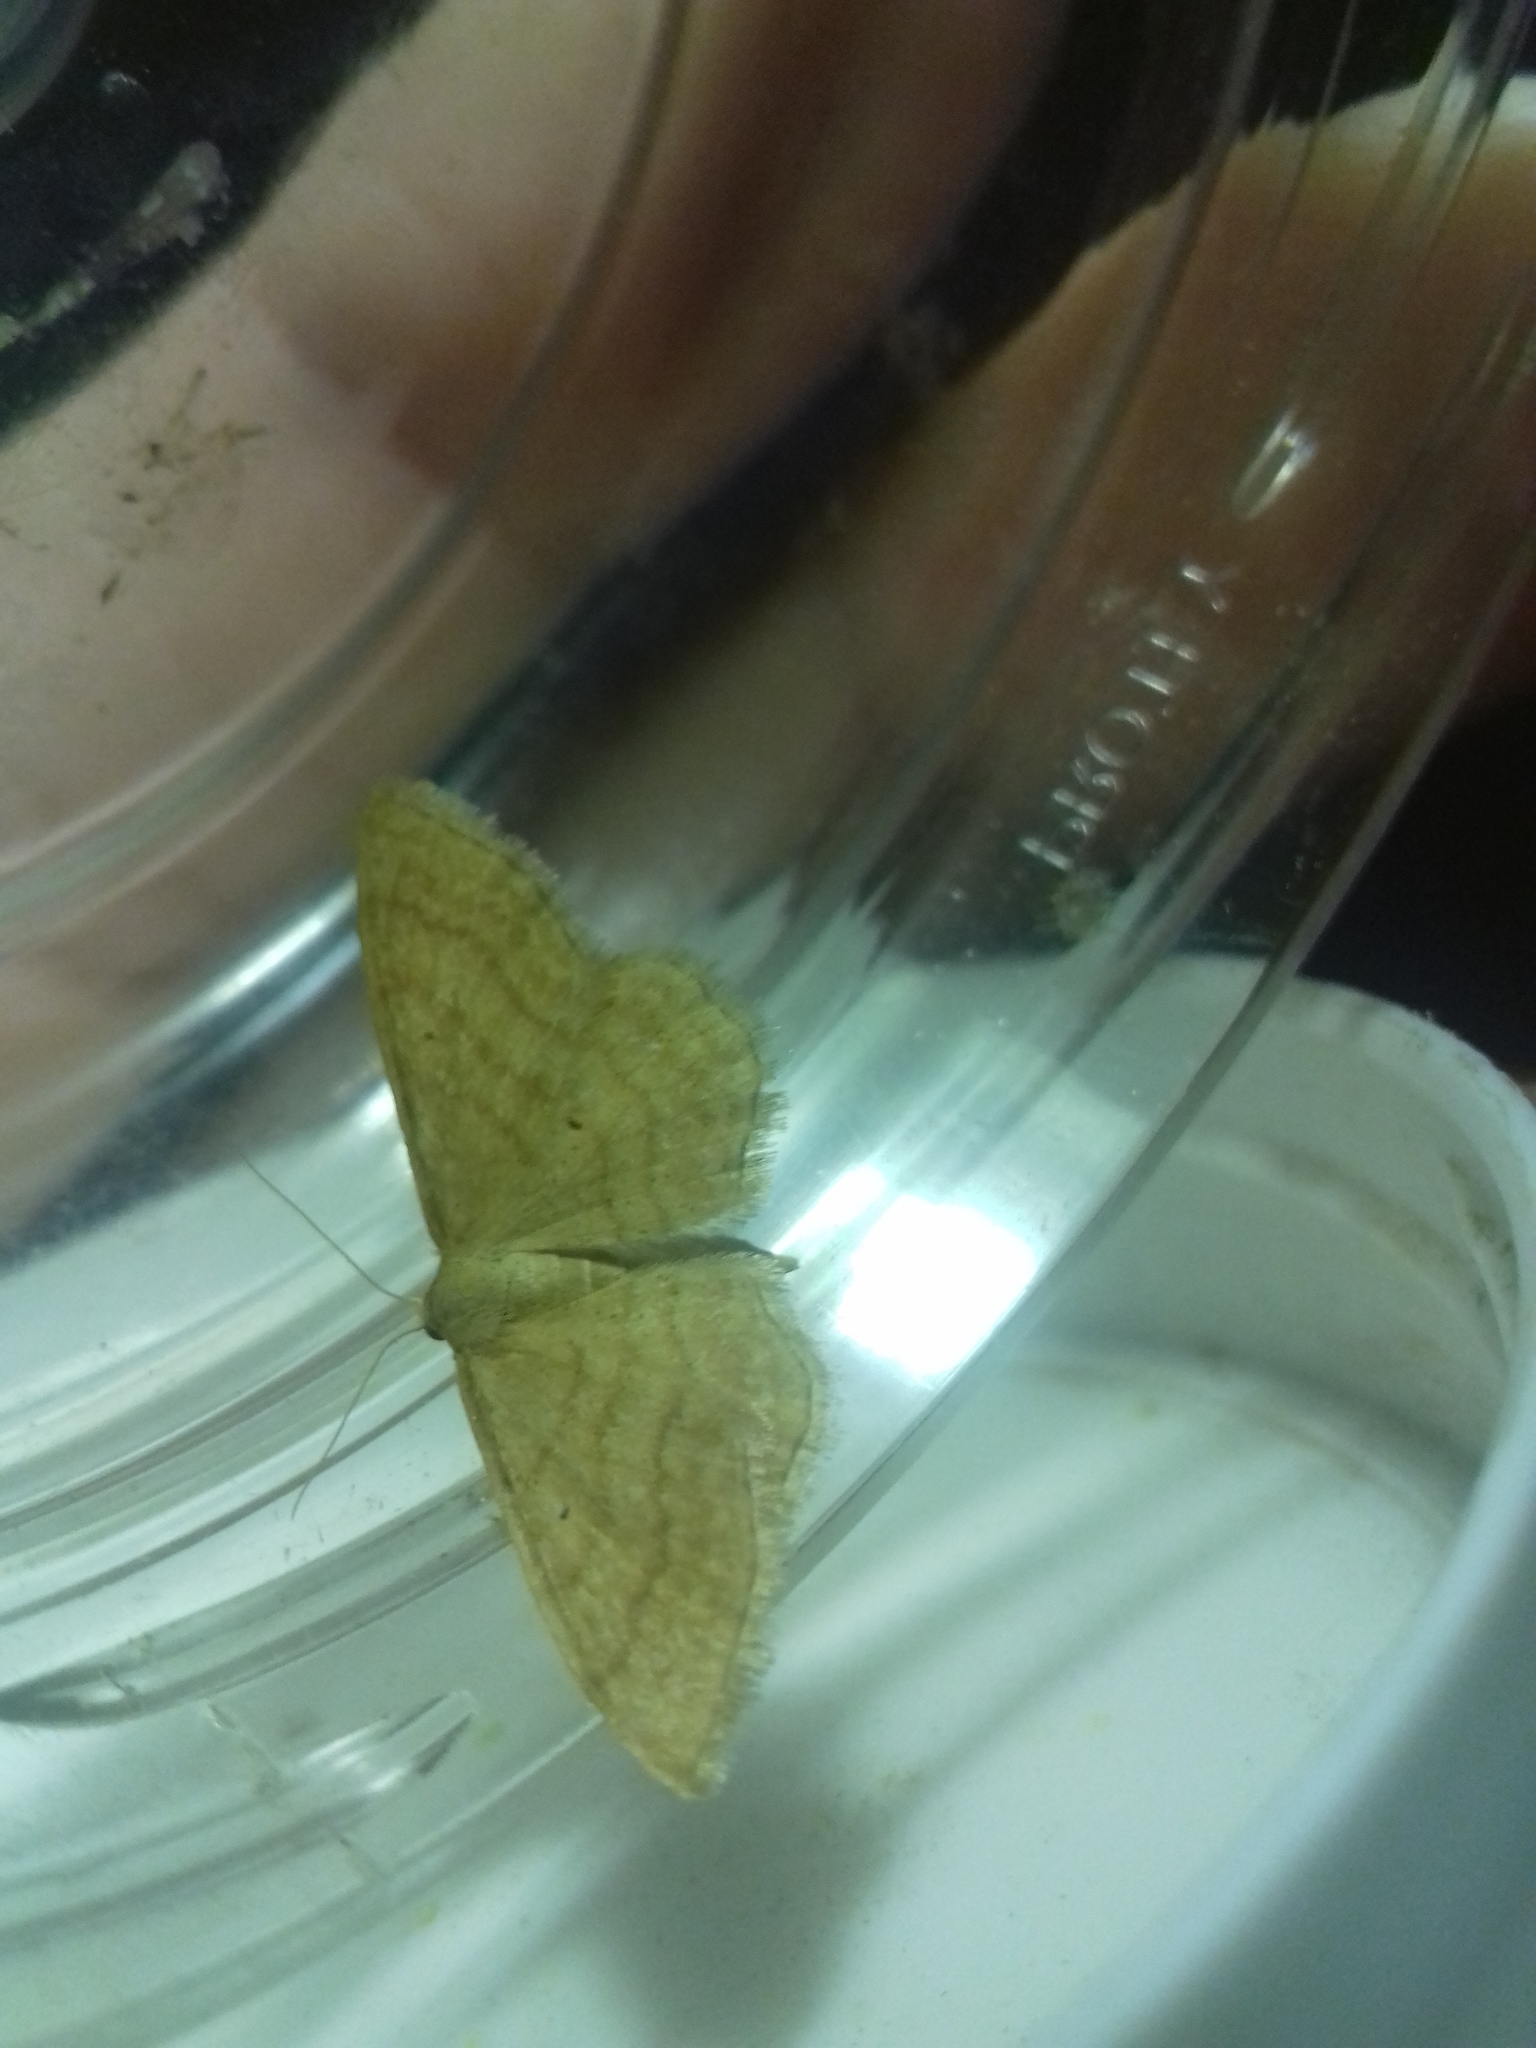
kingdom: Animalia
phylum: Arthropoda
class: Insecta
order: Lepidoptera
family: Geometridae
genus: Idaea
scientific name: Idaea rufaria
